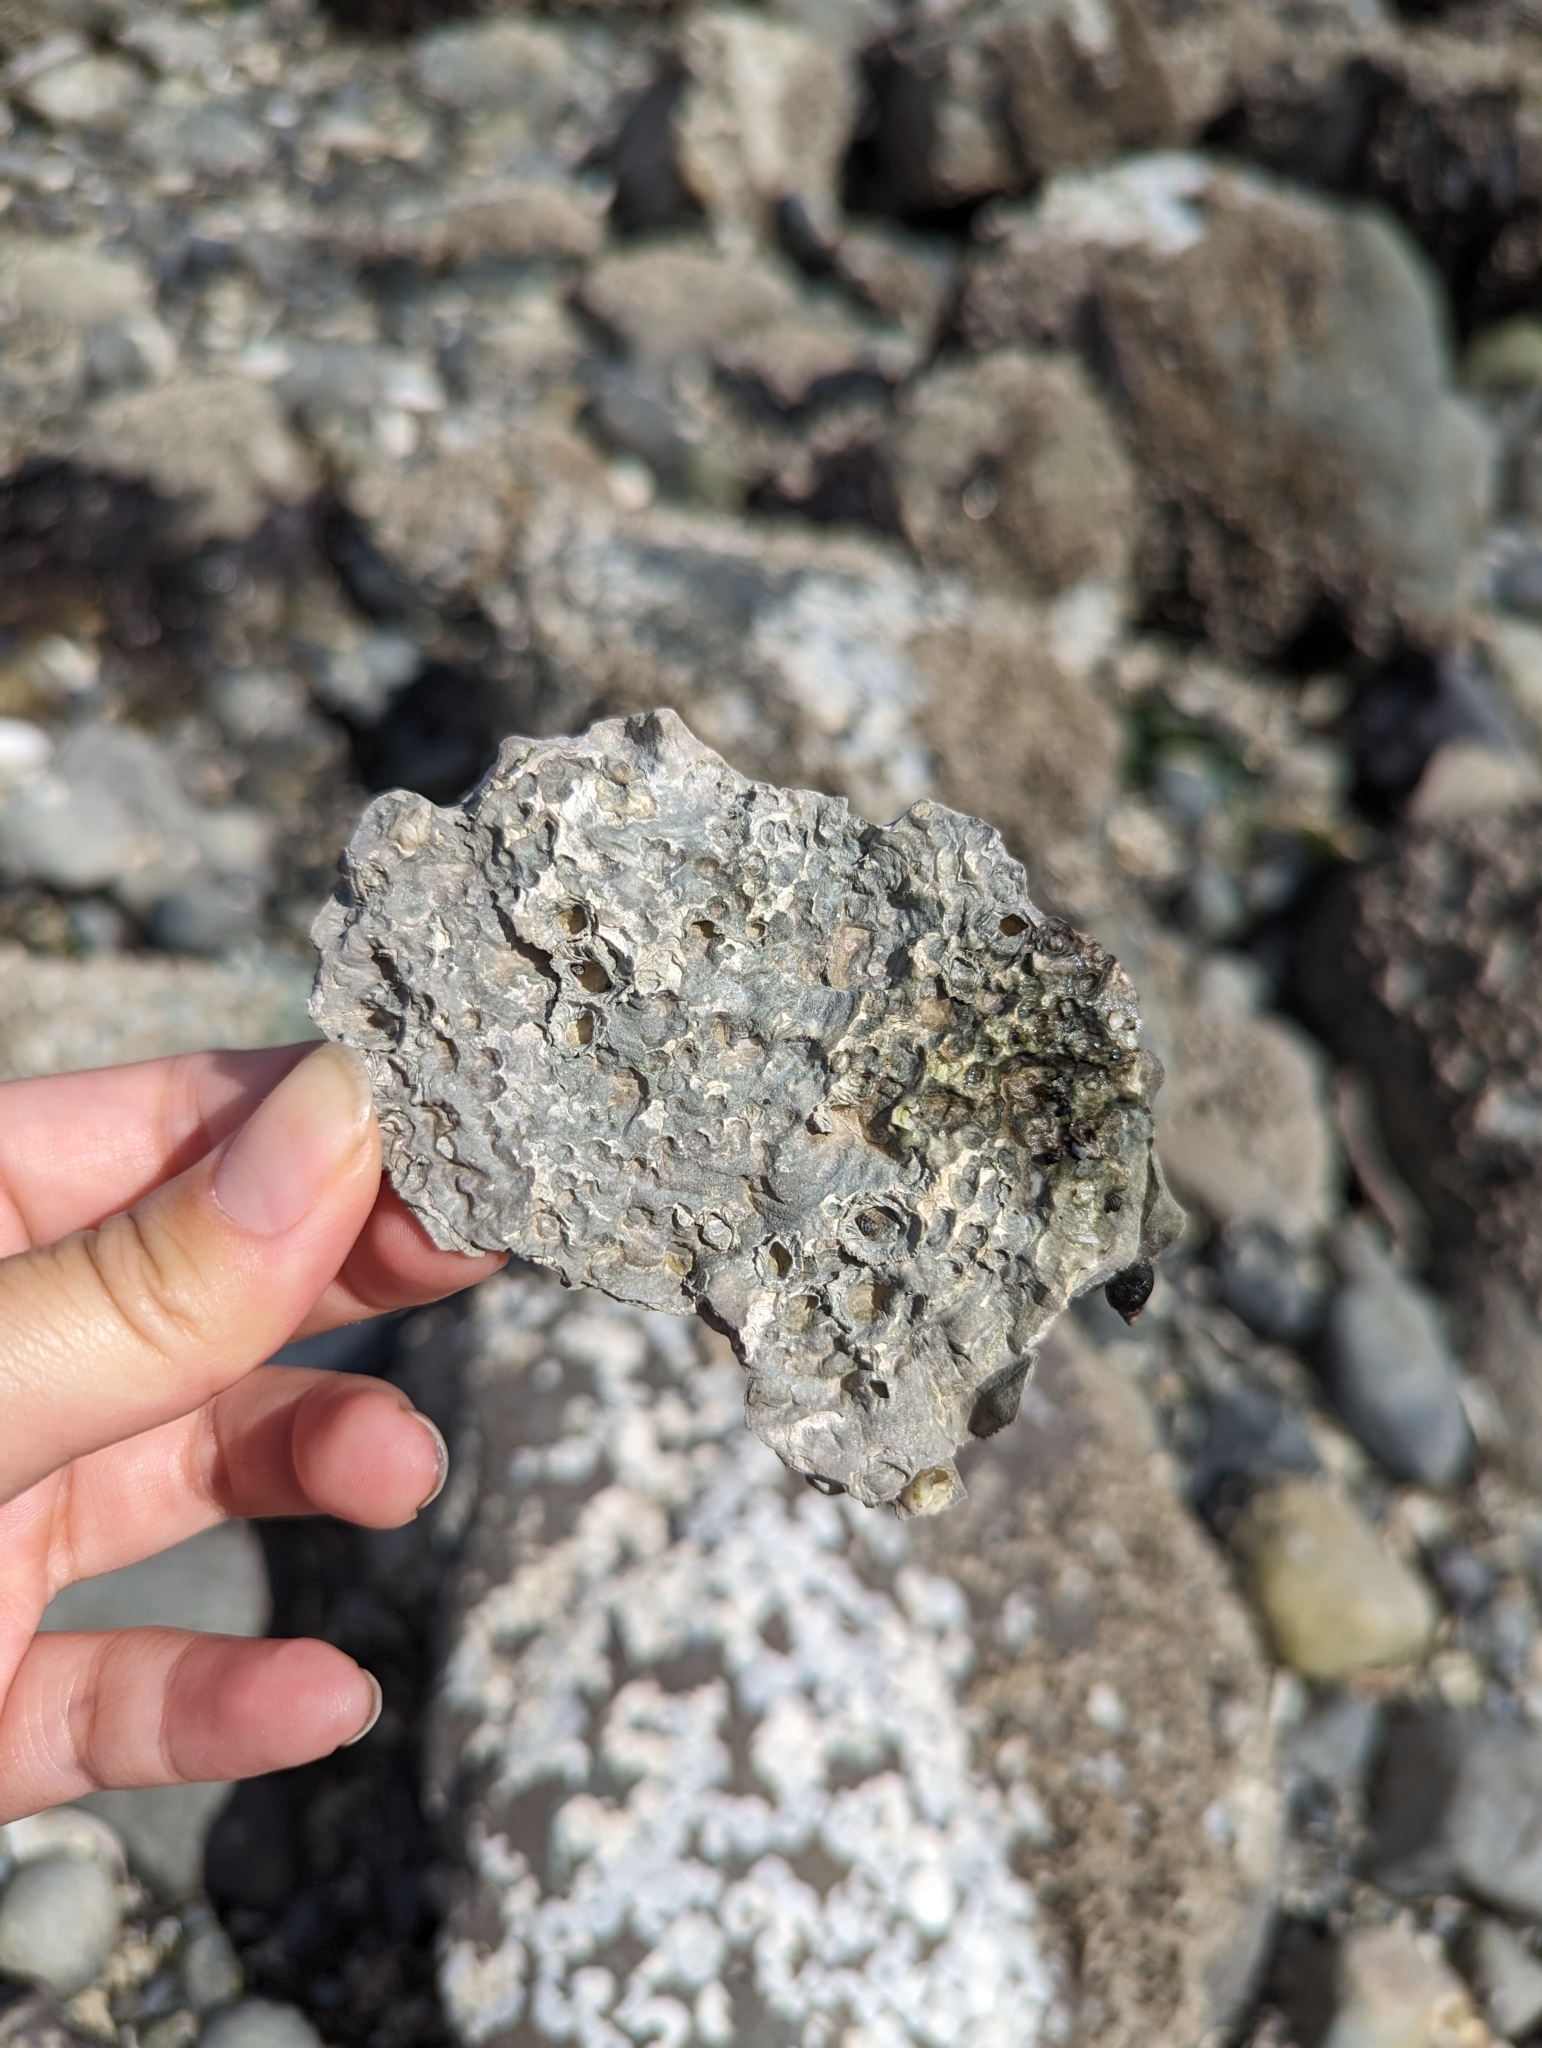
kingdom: Animalia
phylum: Mollusca
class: Bivalvia
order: Ostreida
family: Ostreidae
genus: Magallana
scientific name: Magallana gigas
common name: Pacific oyster
